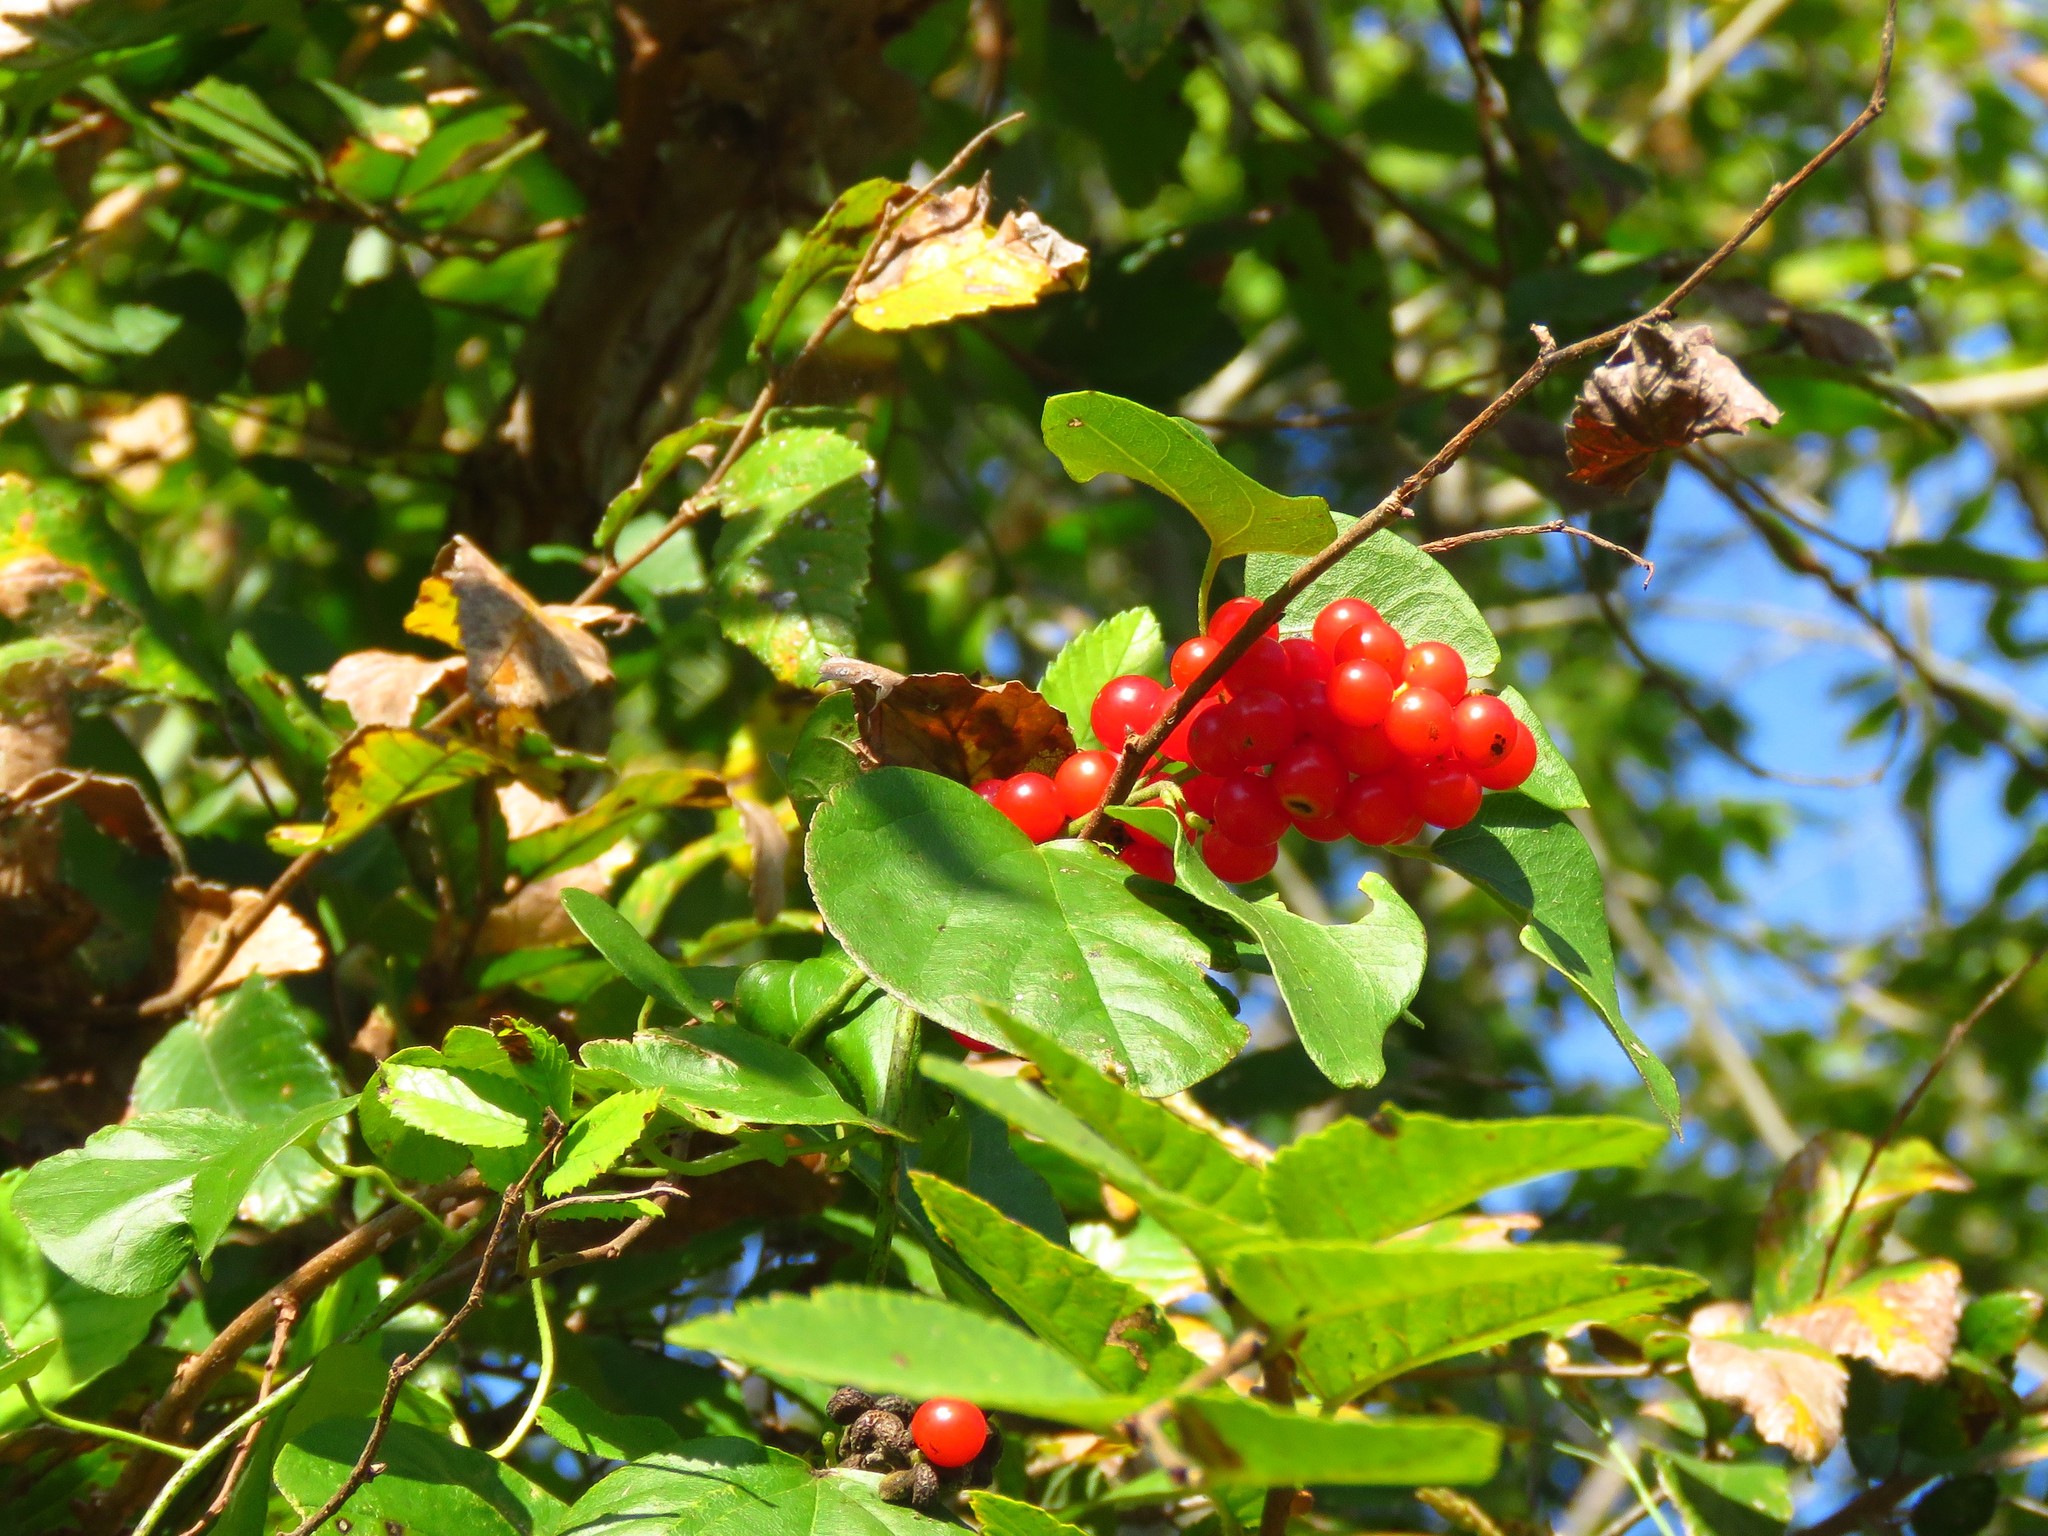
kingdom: Plantae
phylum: Tracheophyta
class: Magnoliopsida
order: Ranunculales
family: Menispermaceae
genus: Cocculus
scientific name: Cocculus carolinus
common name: Carolina moonseed
